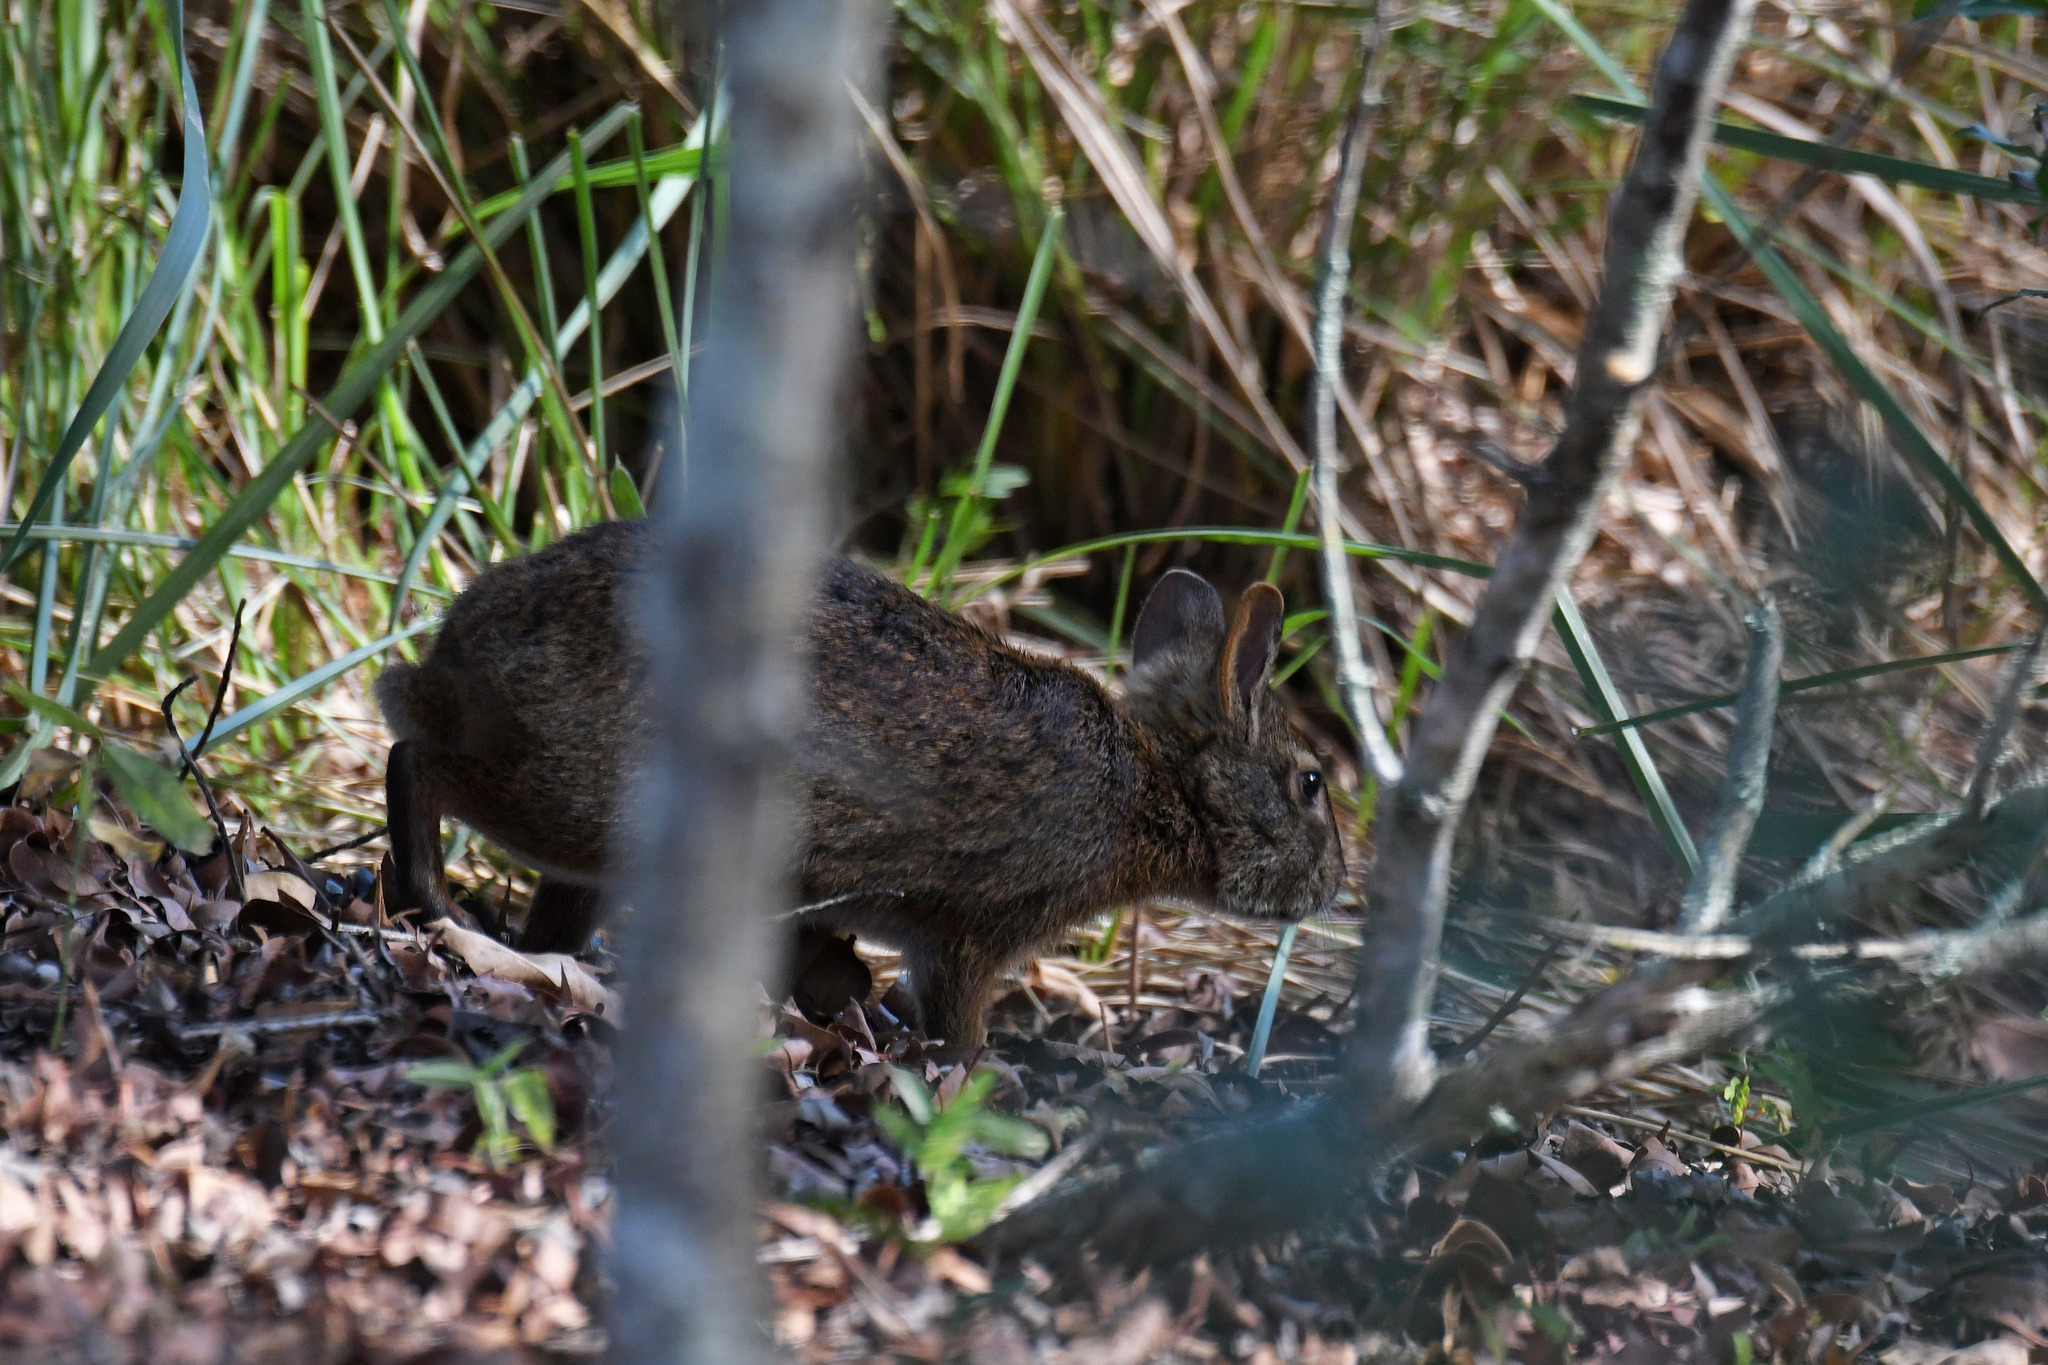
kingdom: Animalia
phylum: Chordata
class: Mammalia
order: Lagomorpha
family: Leporidae
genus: Sylvilagus
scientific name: Sylvilagus palustris
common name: Marsh rabbit
